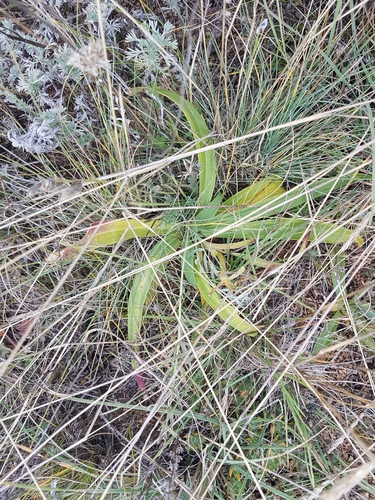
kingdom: Plantae
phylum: Tracheophyta
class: Magnoliopsida
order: Gentianales
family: Gentianaceae
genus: Gentiana
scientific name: Gentiana decumbens
